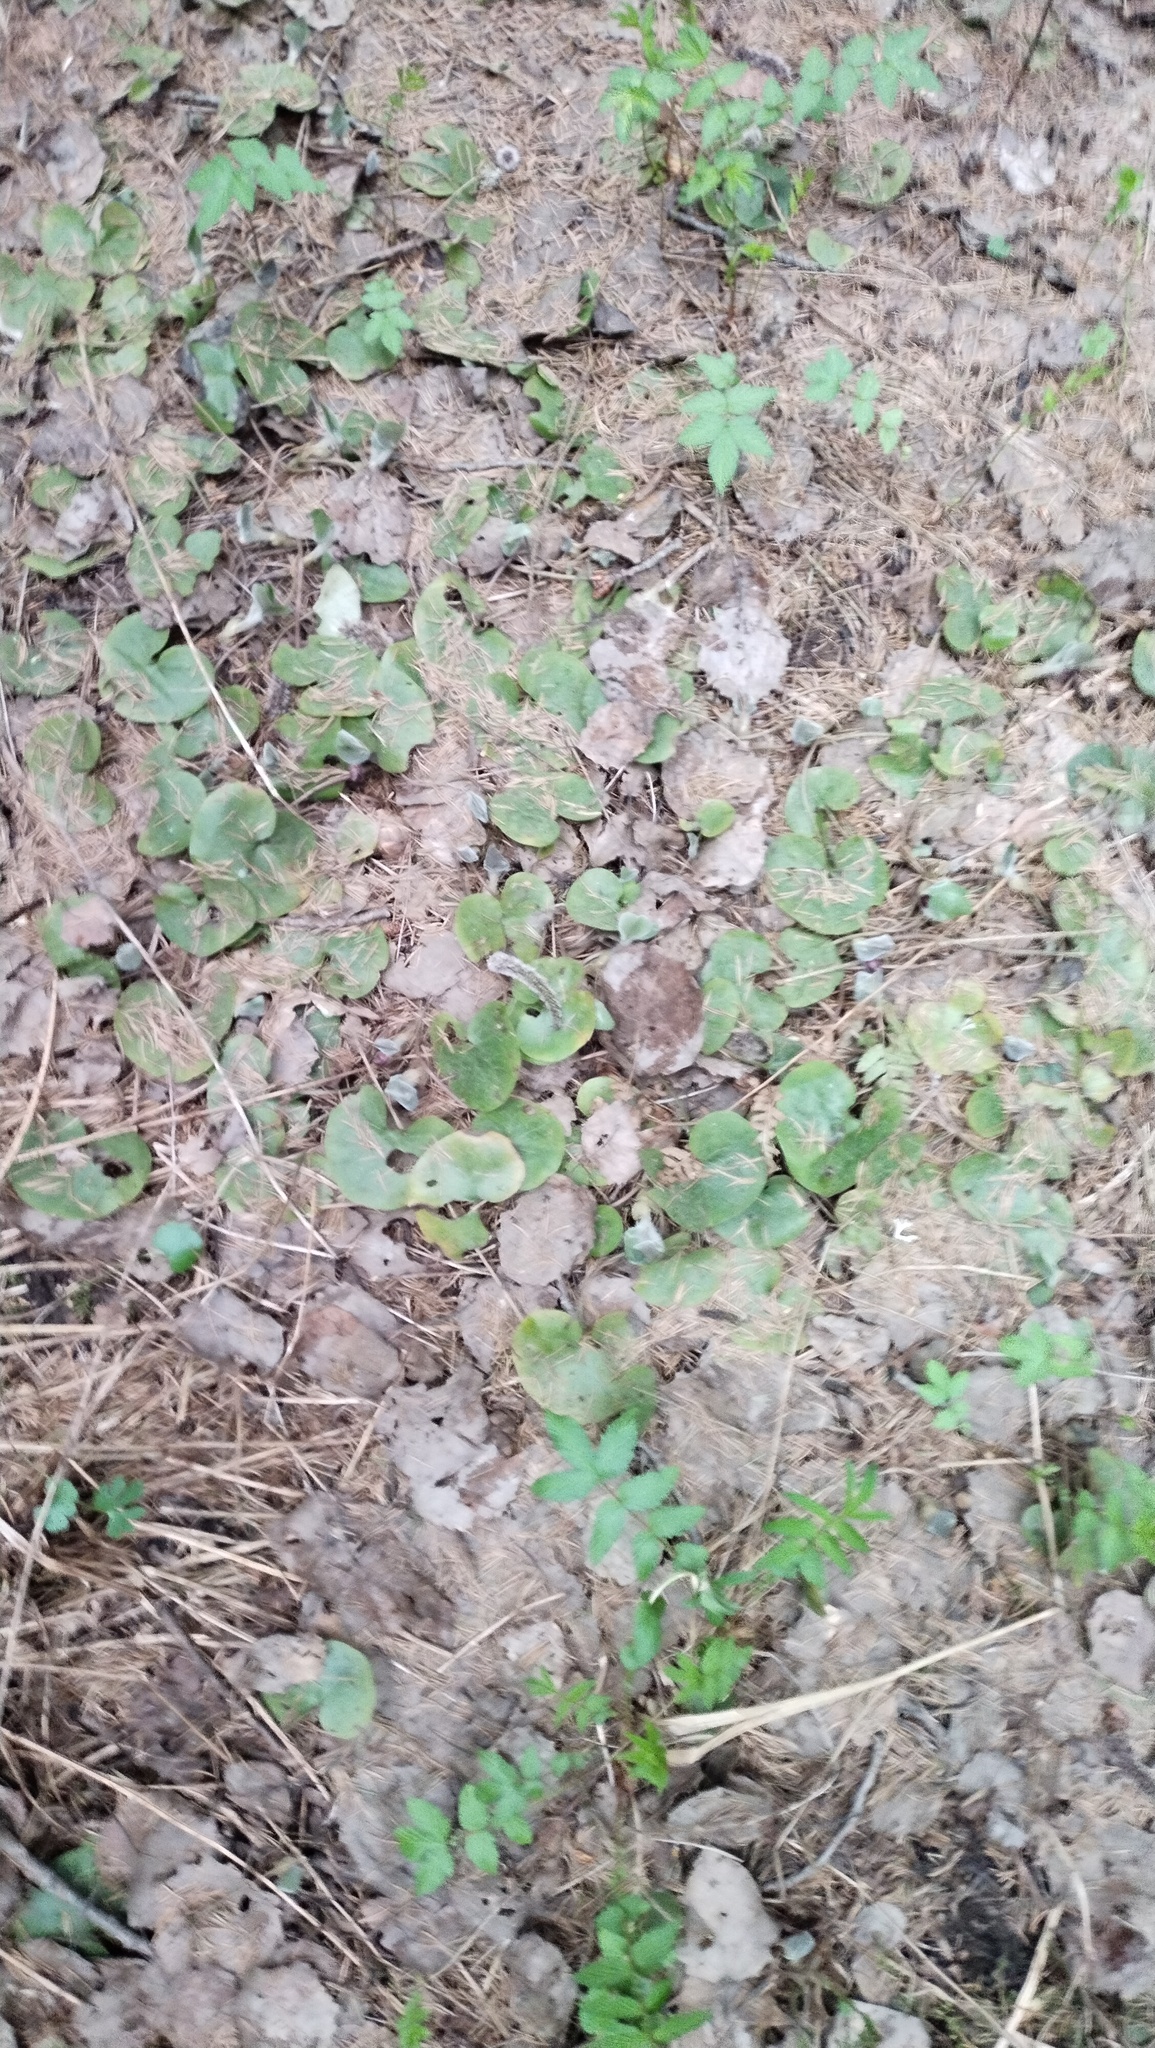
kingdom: Plantae
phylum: Tracheophyta
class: Magnoliopsida
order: Piperales
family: Aristolochiaceae
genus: Asarum
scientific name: Asarum europaeum
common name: Asarabacca
